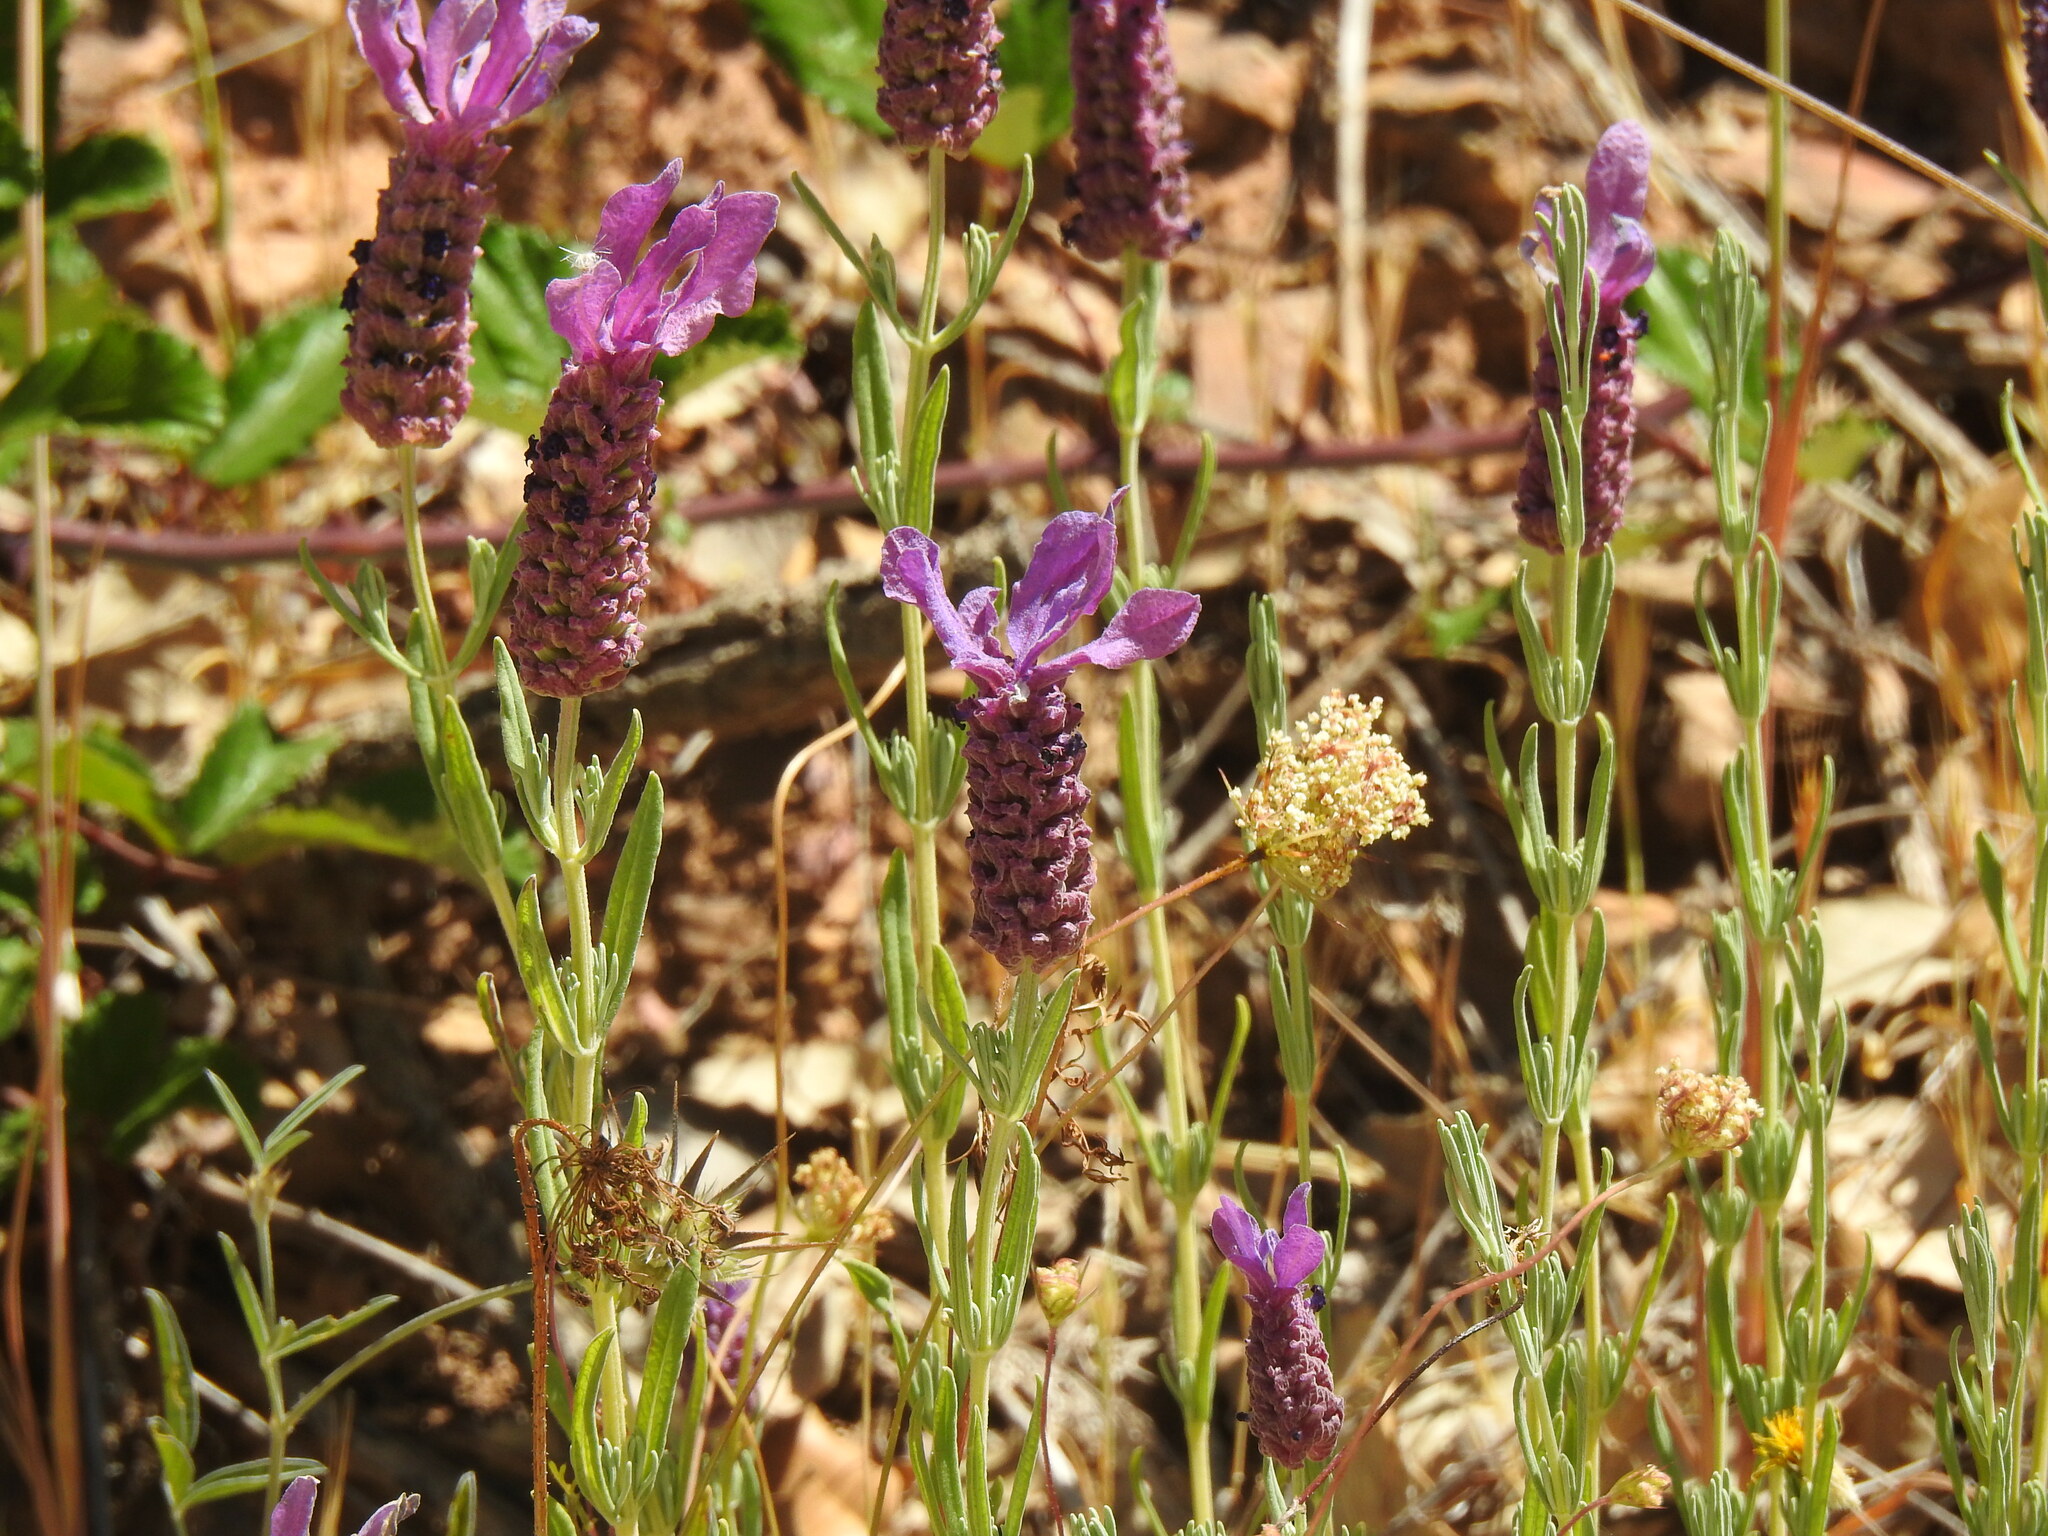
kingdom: Plantae
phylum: Tracheophyta
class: Magnoliopsida
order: Lamiales
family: Lamiaceae
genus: Lavandula
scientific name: Lavandula stoechas
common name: French lavender
